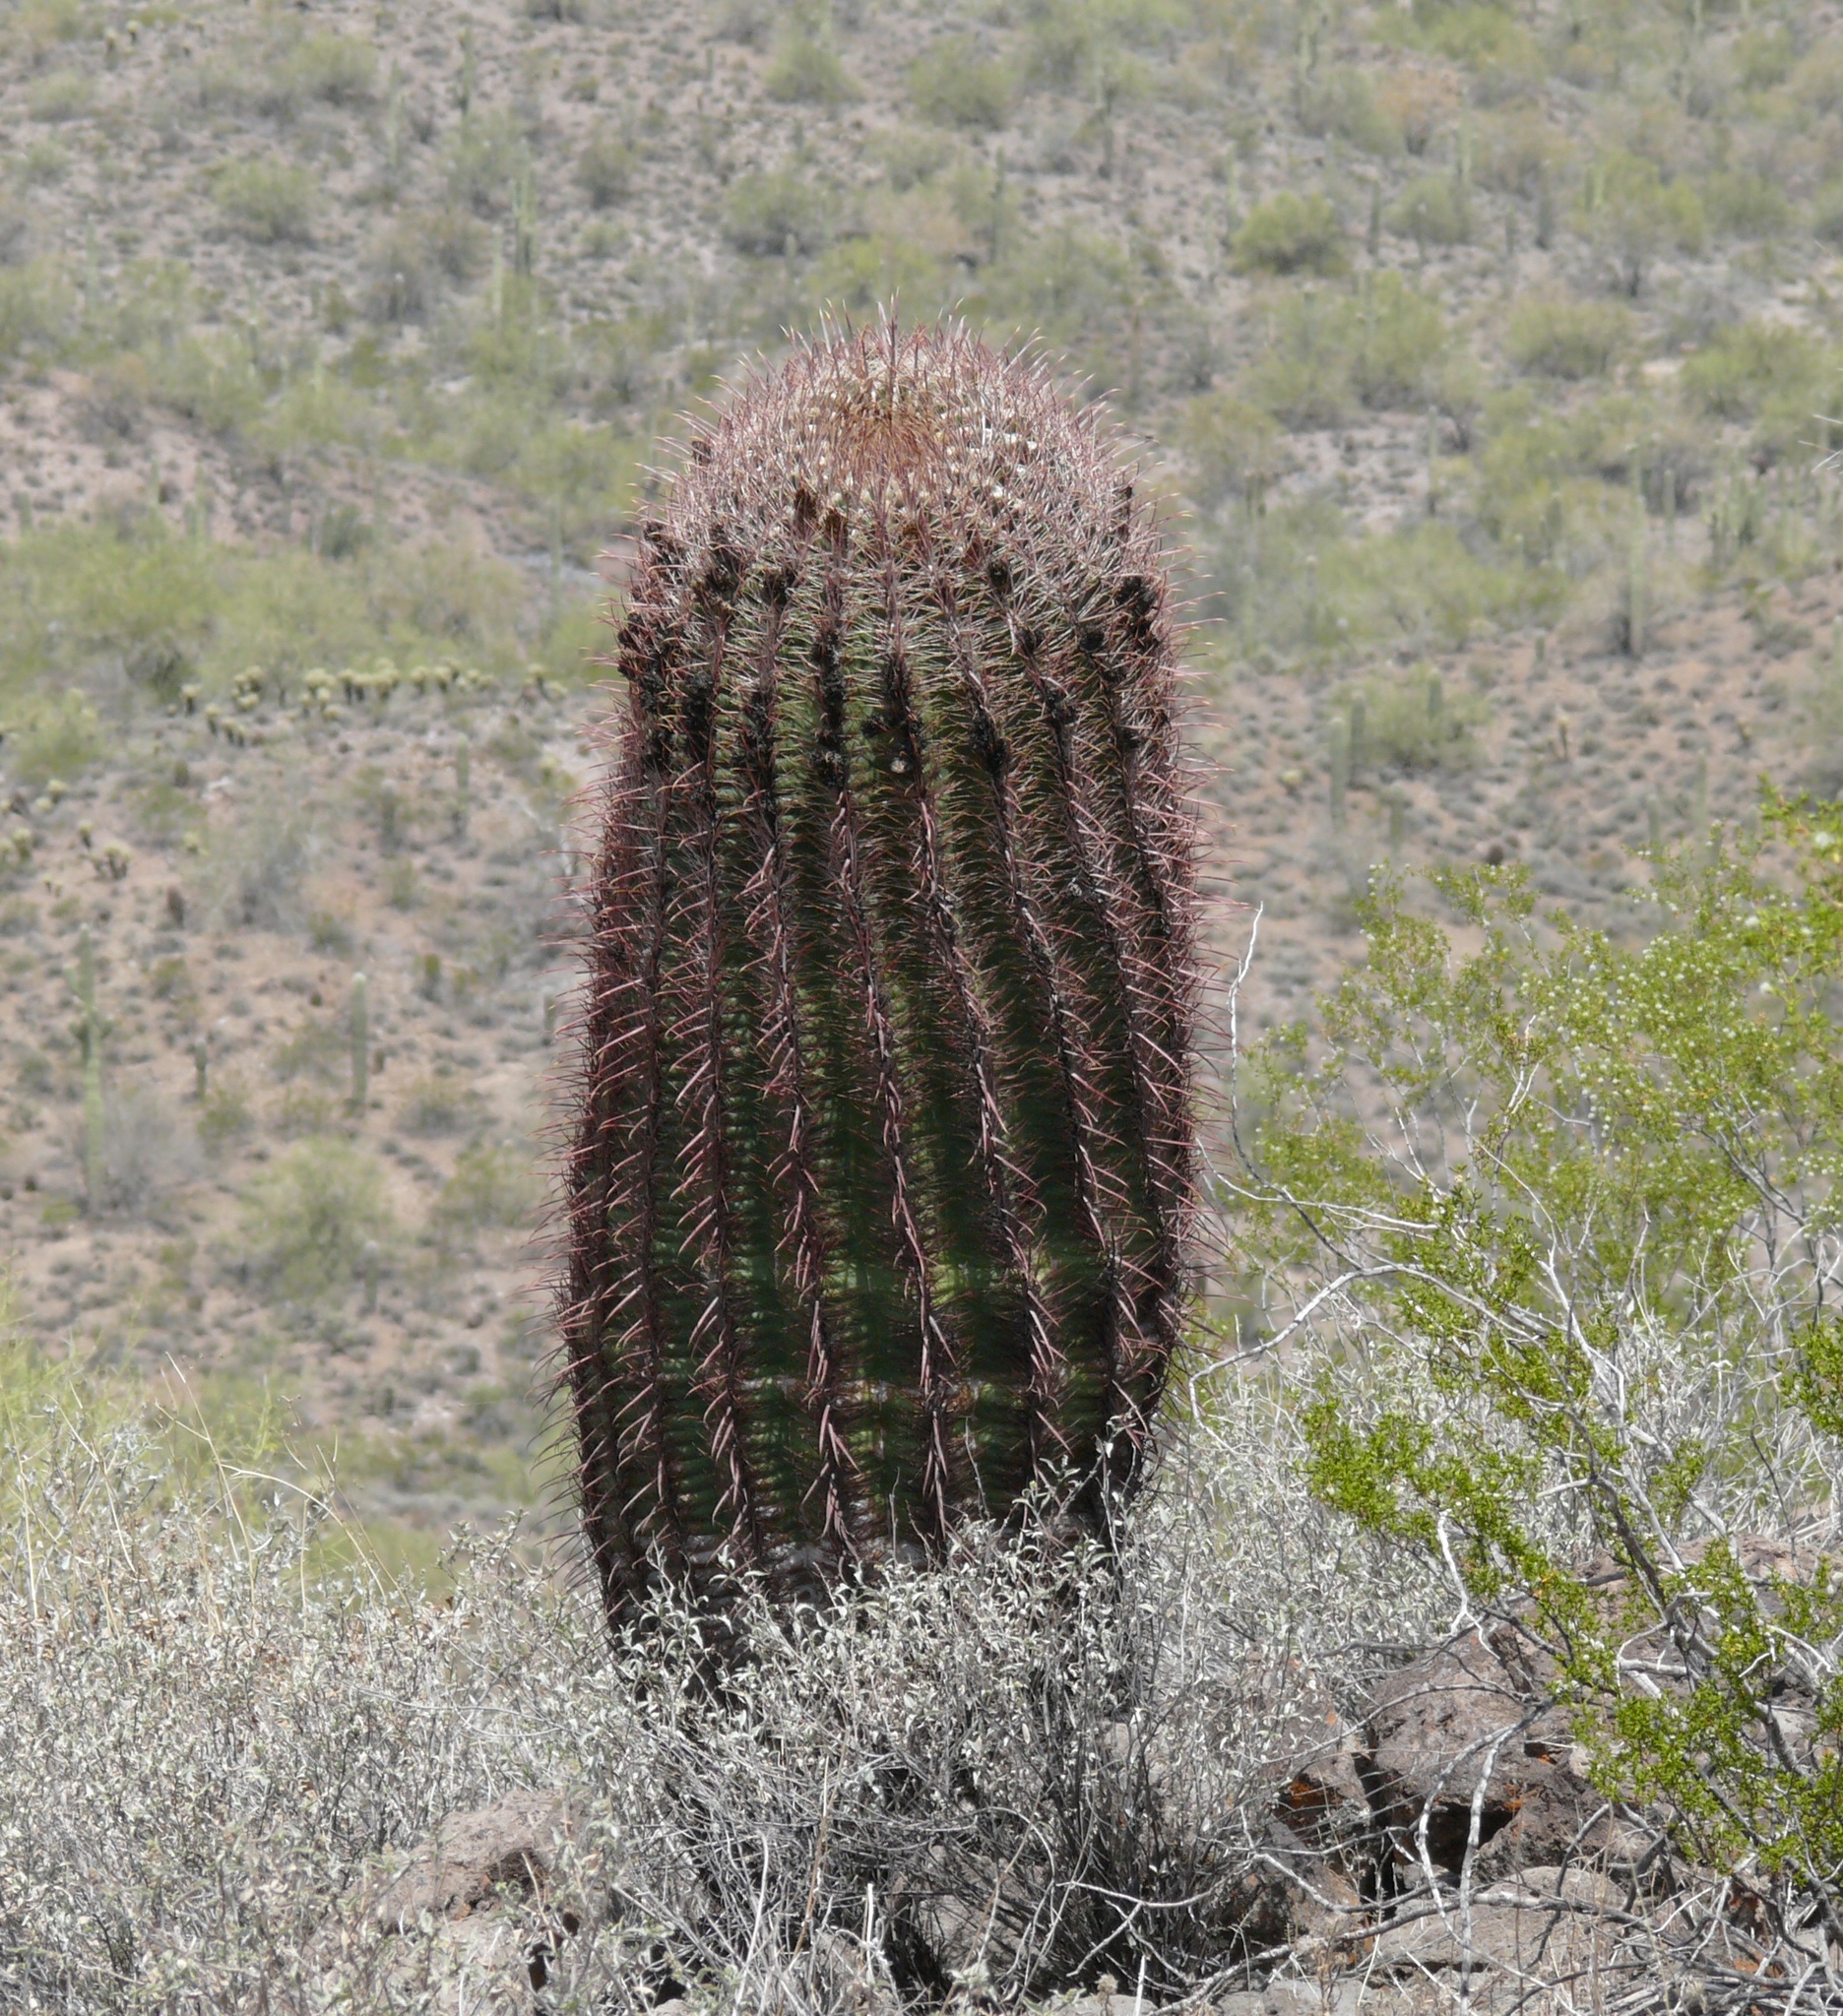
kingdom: Plantae
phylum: Tracheophyta
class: Magnoliopsida
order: Caryophyllales
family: Cactaceae
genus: Ferocactus
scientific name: Ferocactus cylindraceus
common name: California barrel cactus
